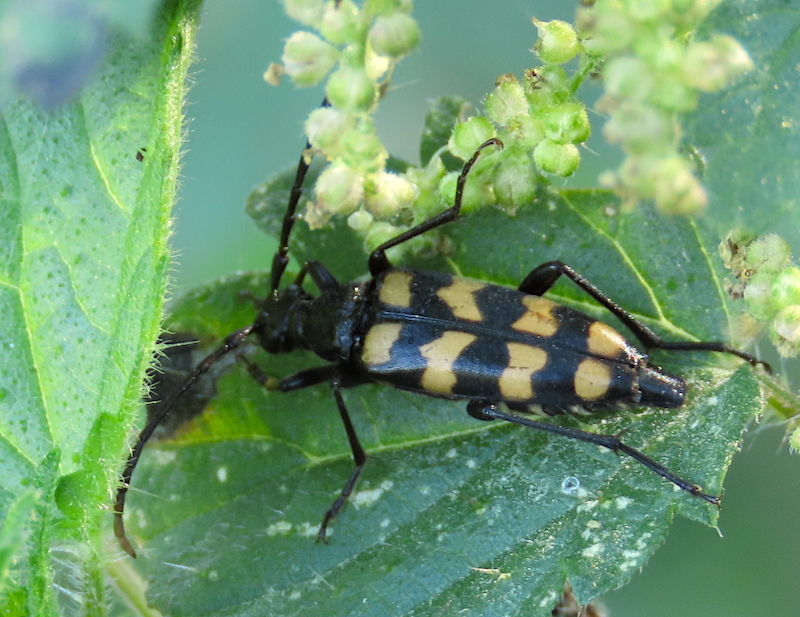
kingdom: Animalia
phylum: Arthropoda
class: Insecta
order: Coleoptera
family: Cerambycidae
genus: Leptura
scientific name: Leptura quadrifasciata
